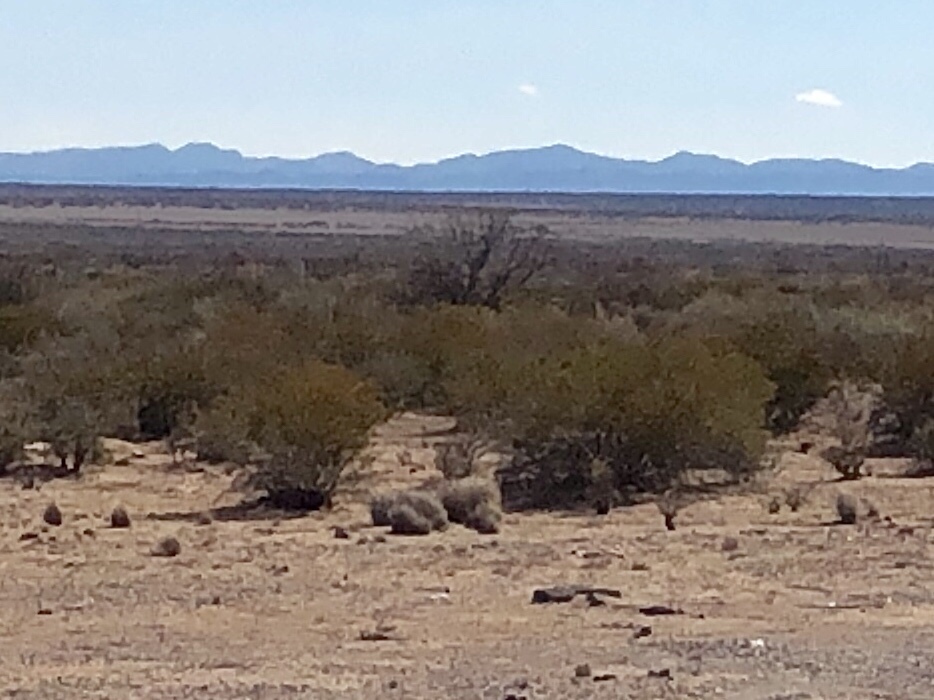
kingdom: Plantae
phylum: Tracheophyta
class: Magnoliopsida
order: Zygophyllales
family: Zygophyllaceae
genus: Larrea
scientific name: Larrea tridentata
